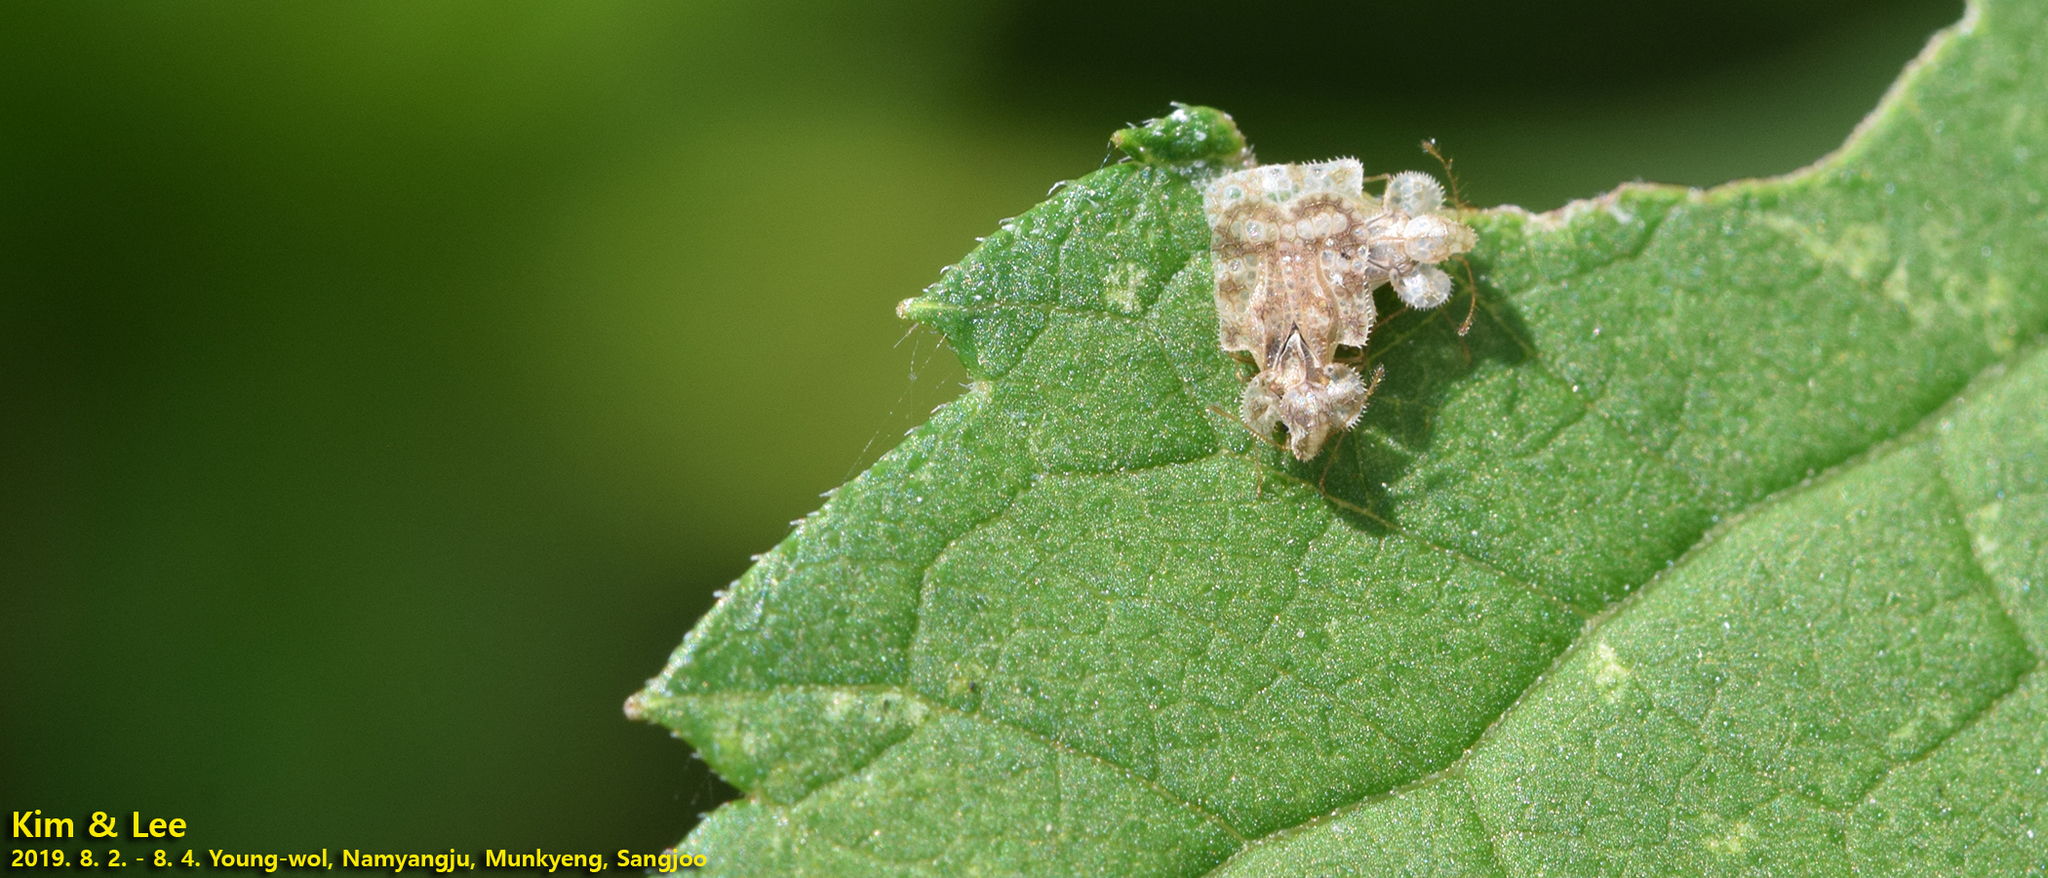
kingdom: Animalia
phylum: Arthropoda
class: Insecta
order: Hemiptera
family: Tingidae
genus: Corythucha
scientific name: Corythucha marmorata
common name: Chrysanthemum lace bug
